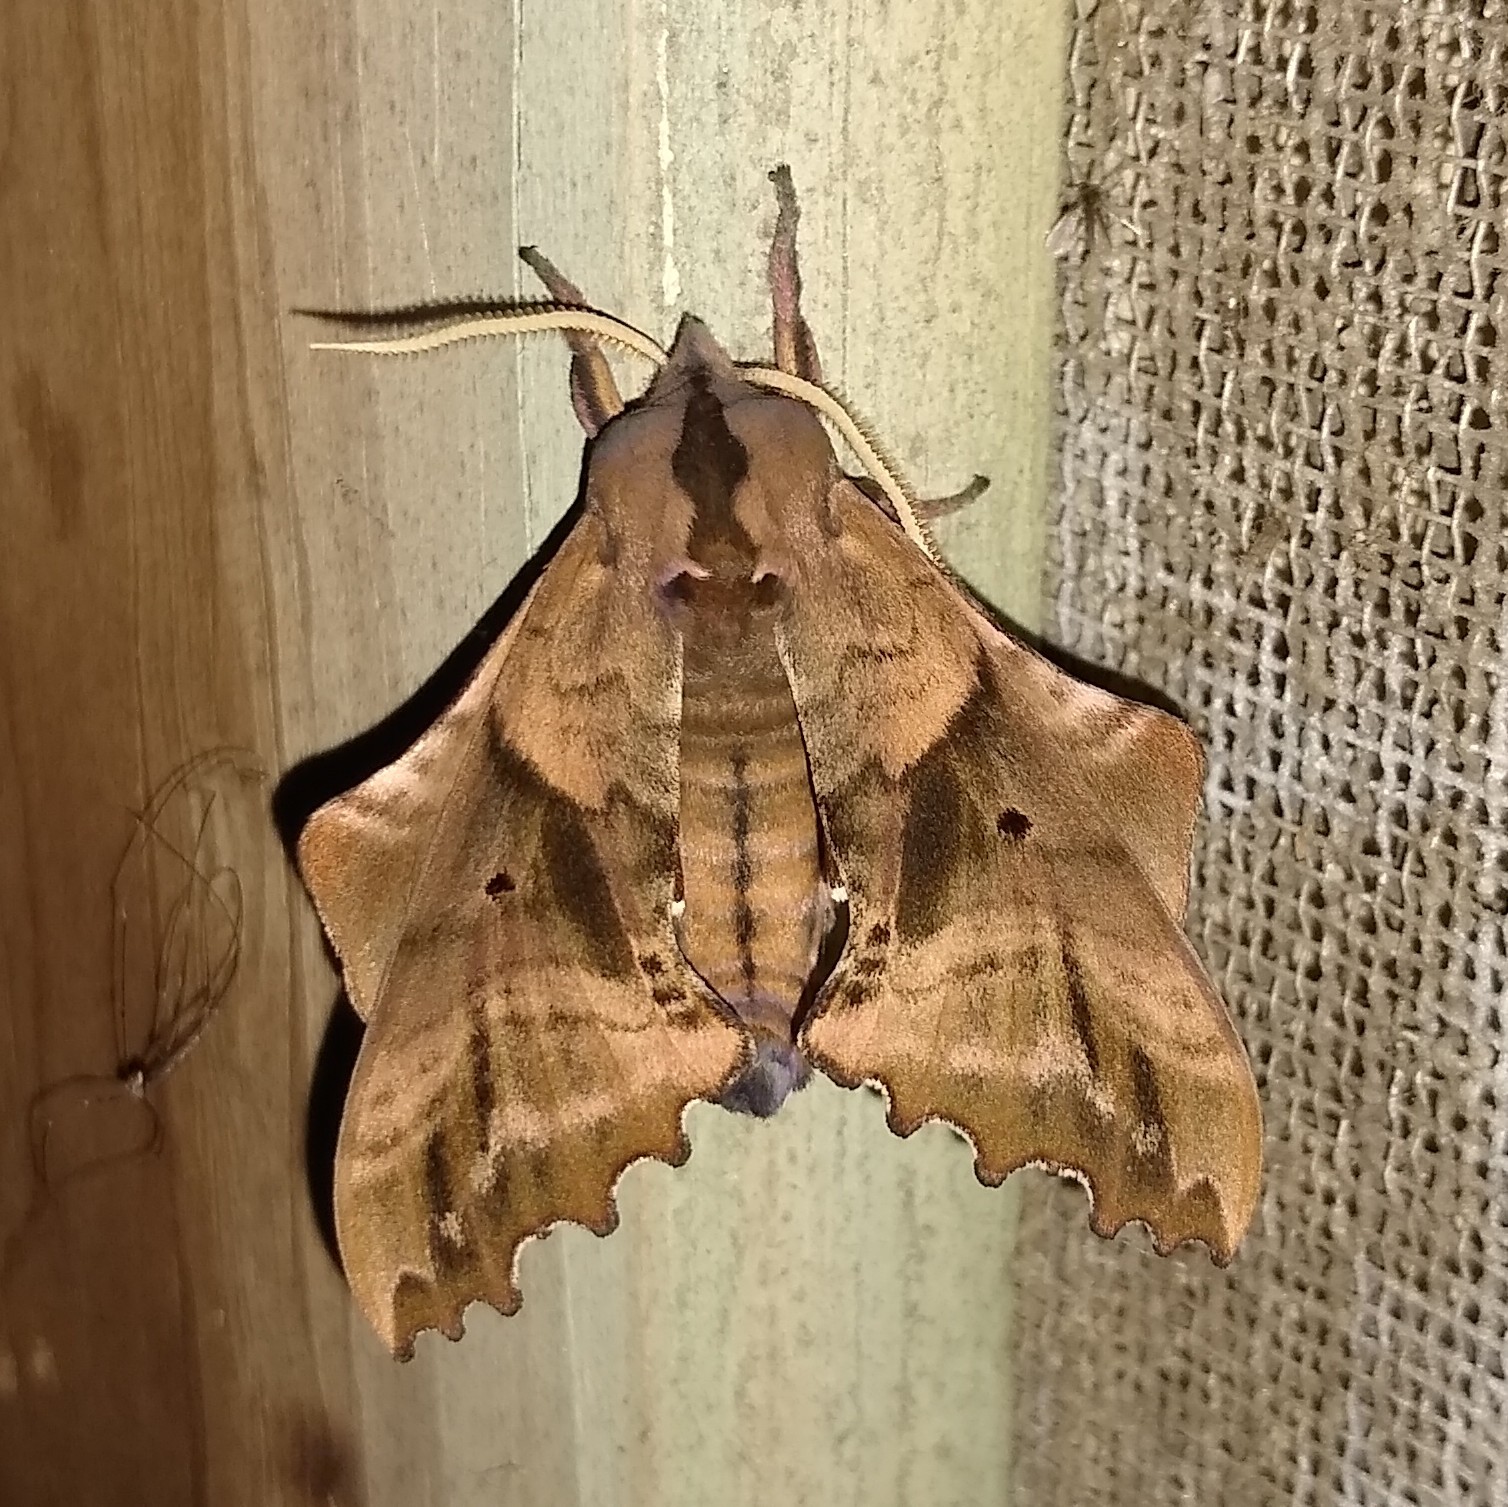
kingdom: Animalia
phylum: Arthropoda
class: Insecta
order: Lepidoptera
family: Sphingidae
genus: Paonias
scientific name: Paonias excaecata
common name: Blind-eyed sphinx
